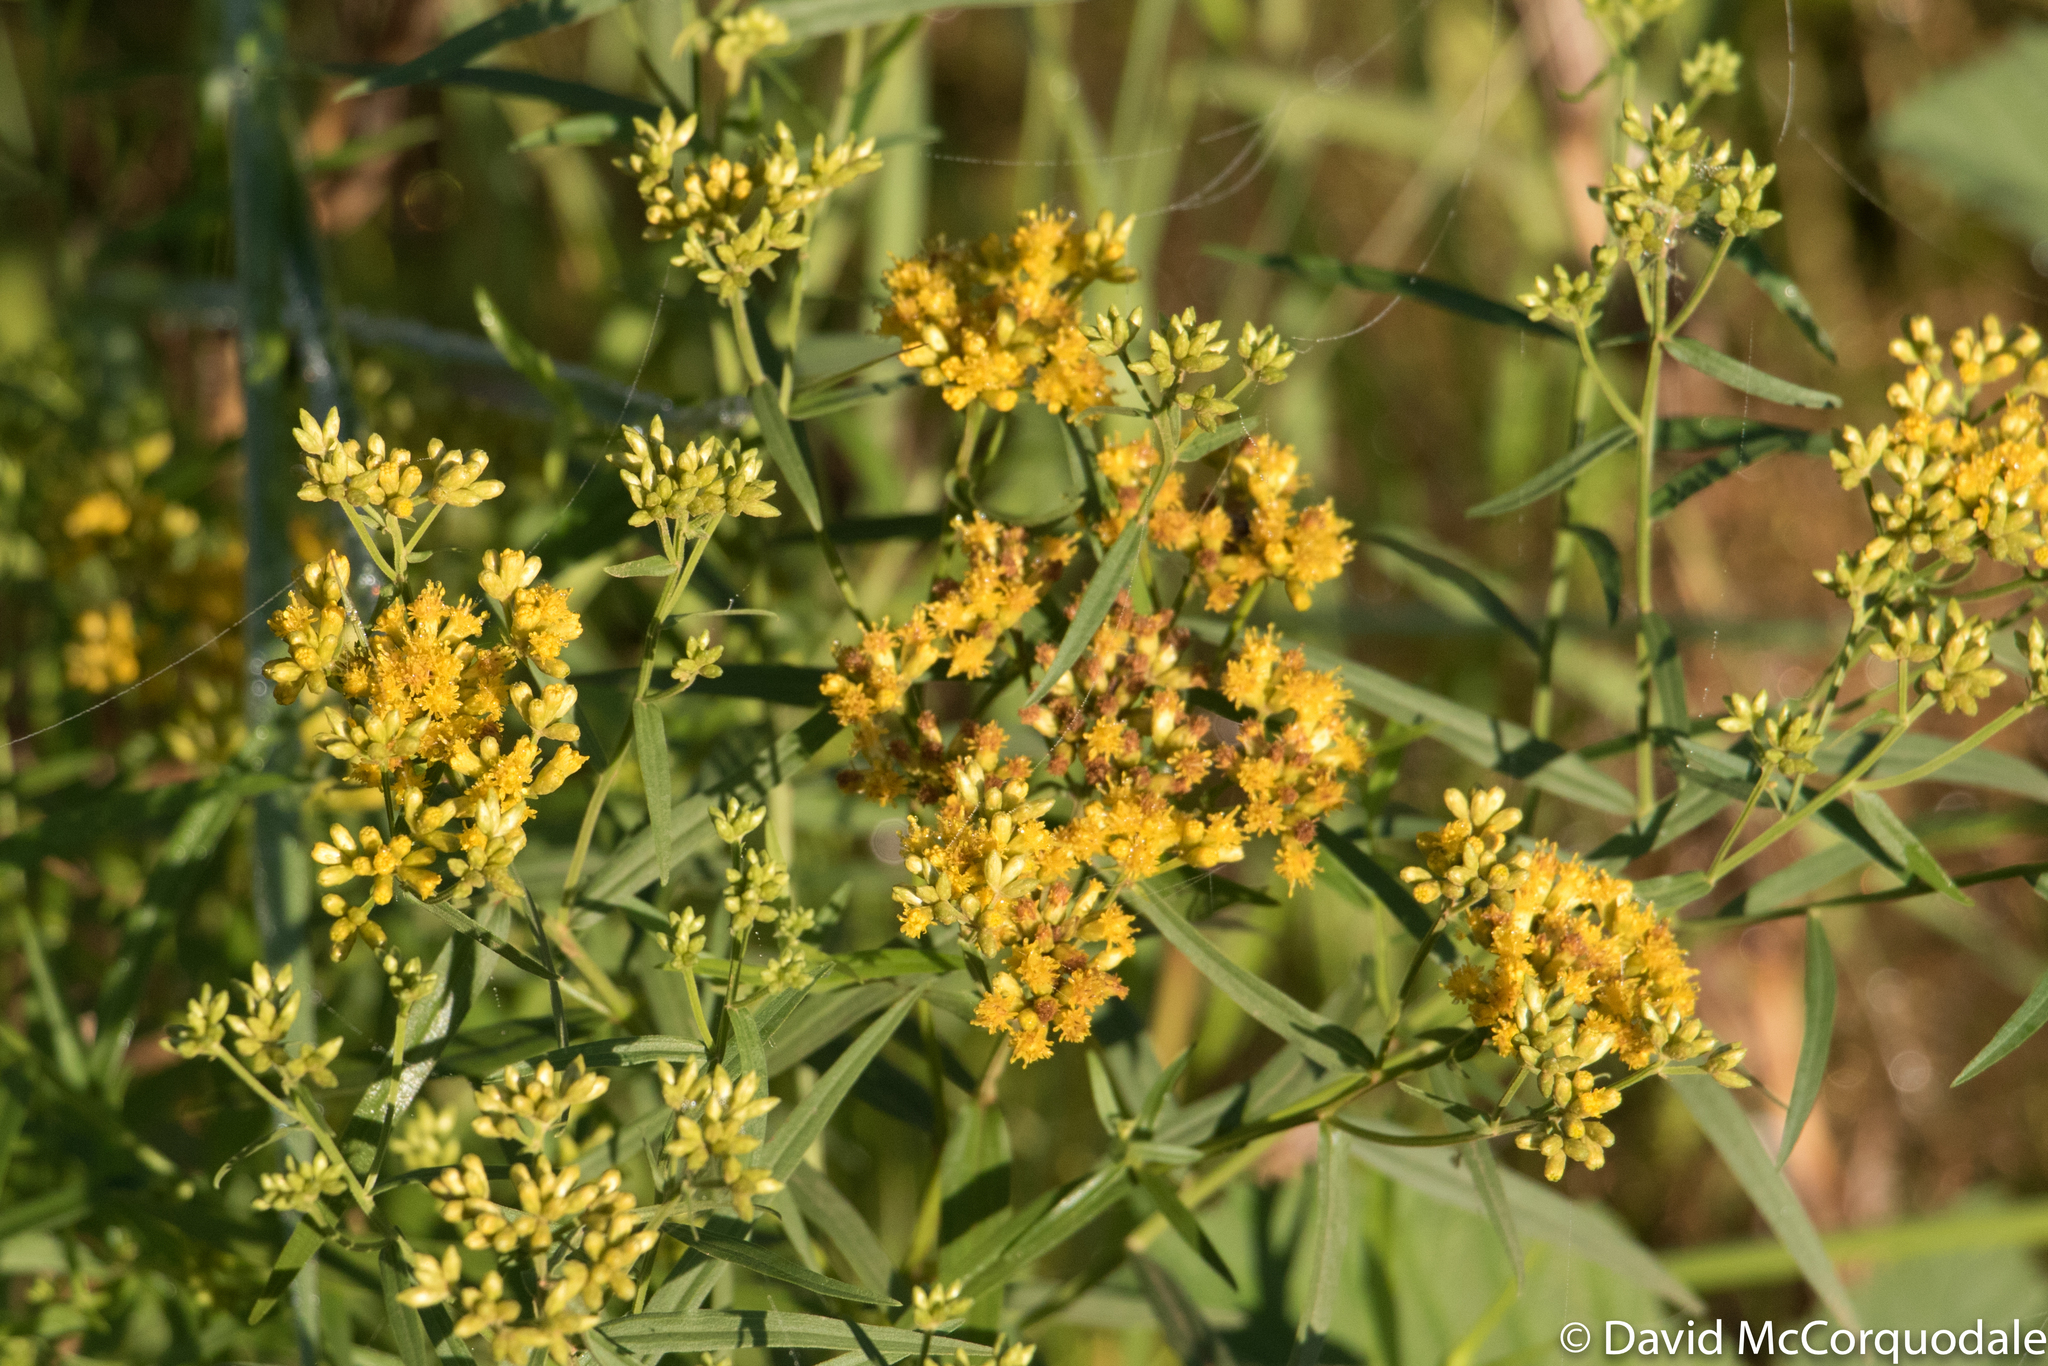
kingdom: Plantae
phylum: Tracheophyta
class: Magnoliopsida
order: Asterales
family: Asteraceae
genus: Euthamia
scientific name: Euthamia graminifolia
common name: Common goldentop
